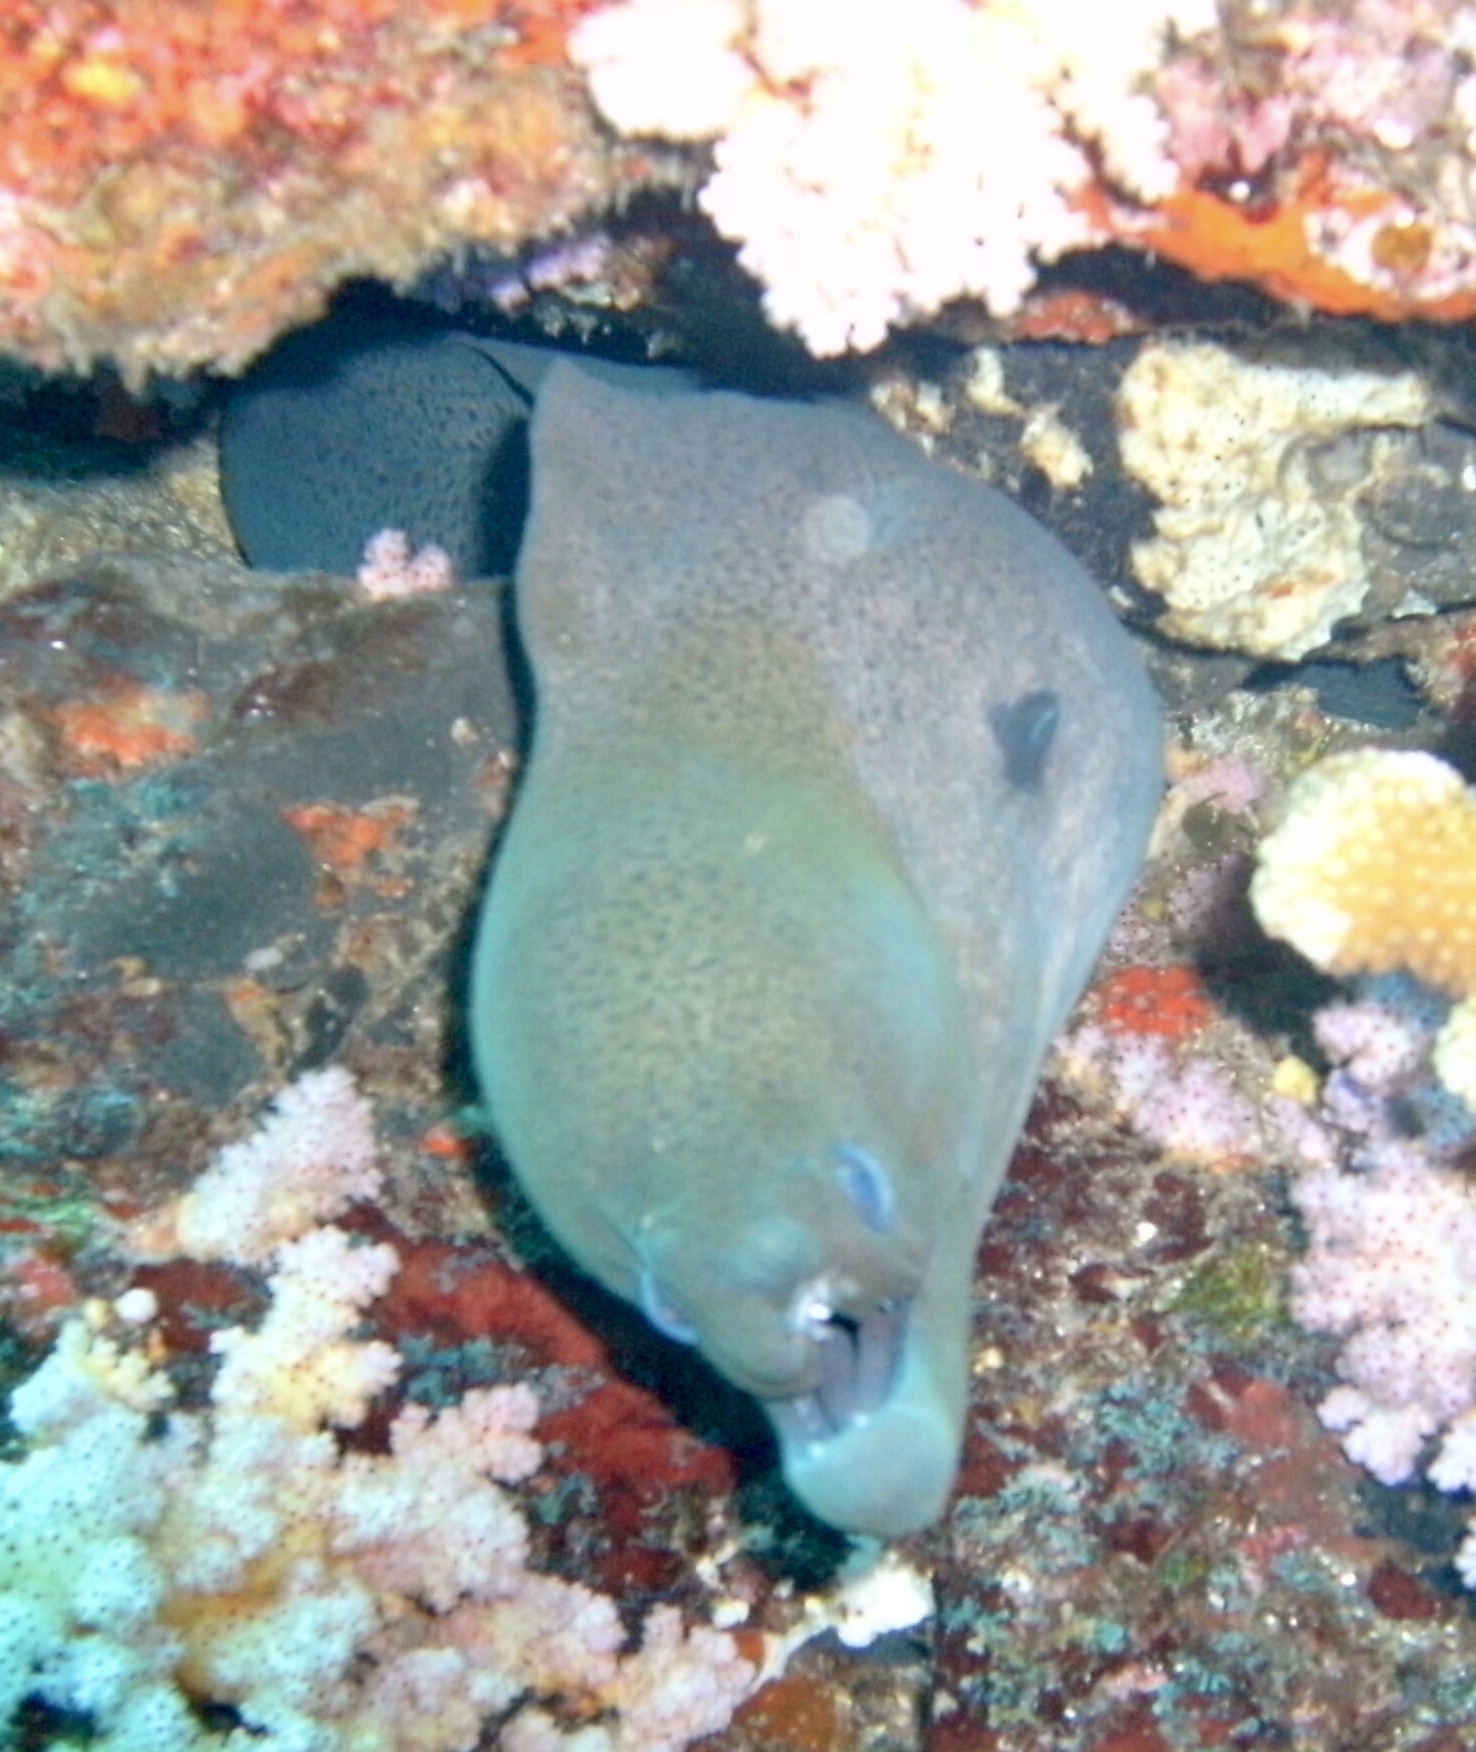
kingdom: Animalia
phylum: Chordata
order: Anguilliformes
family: Muraenidae
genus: Gymnothorax
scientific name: Gymnothorax javanicus
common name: Giant moray
